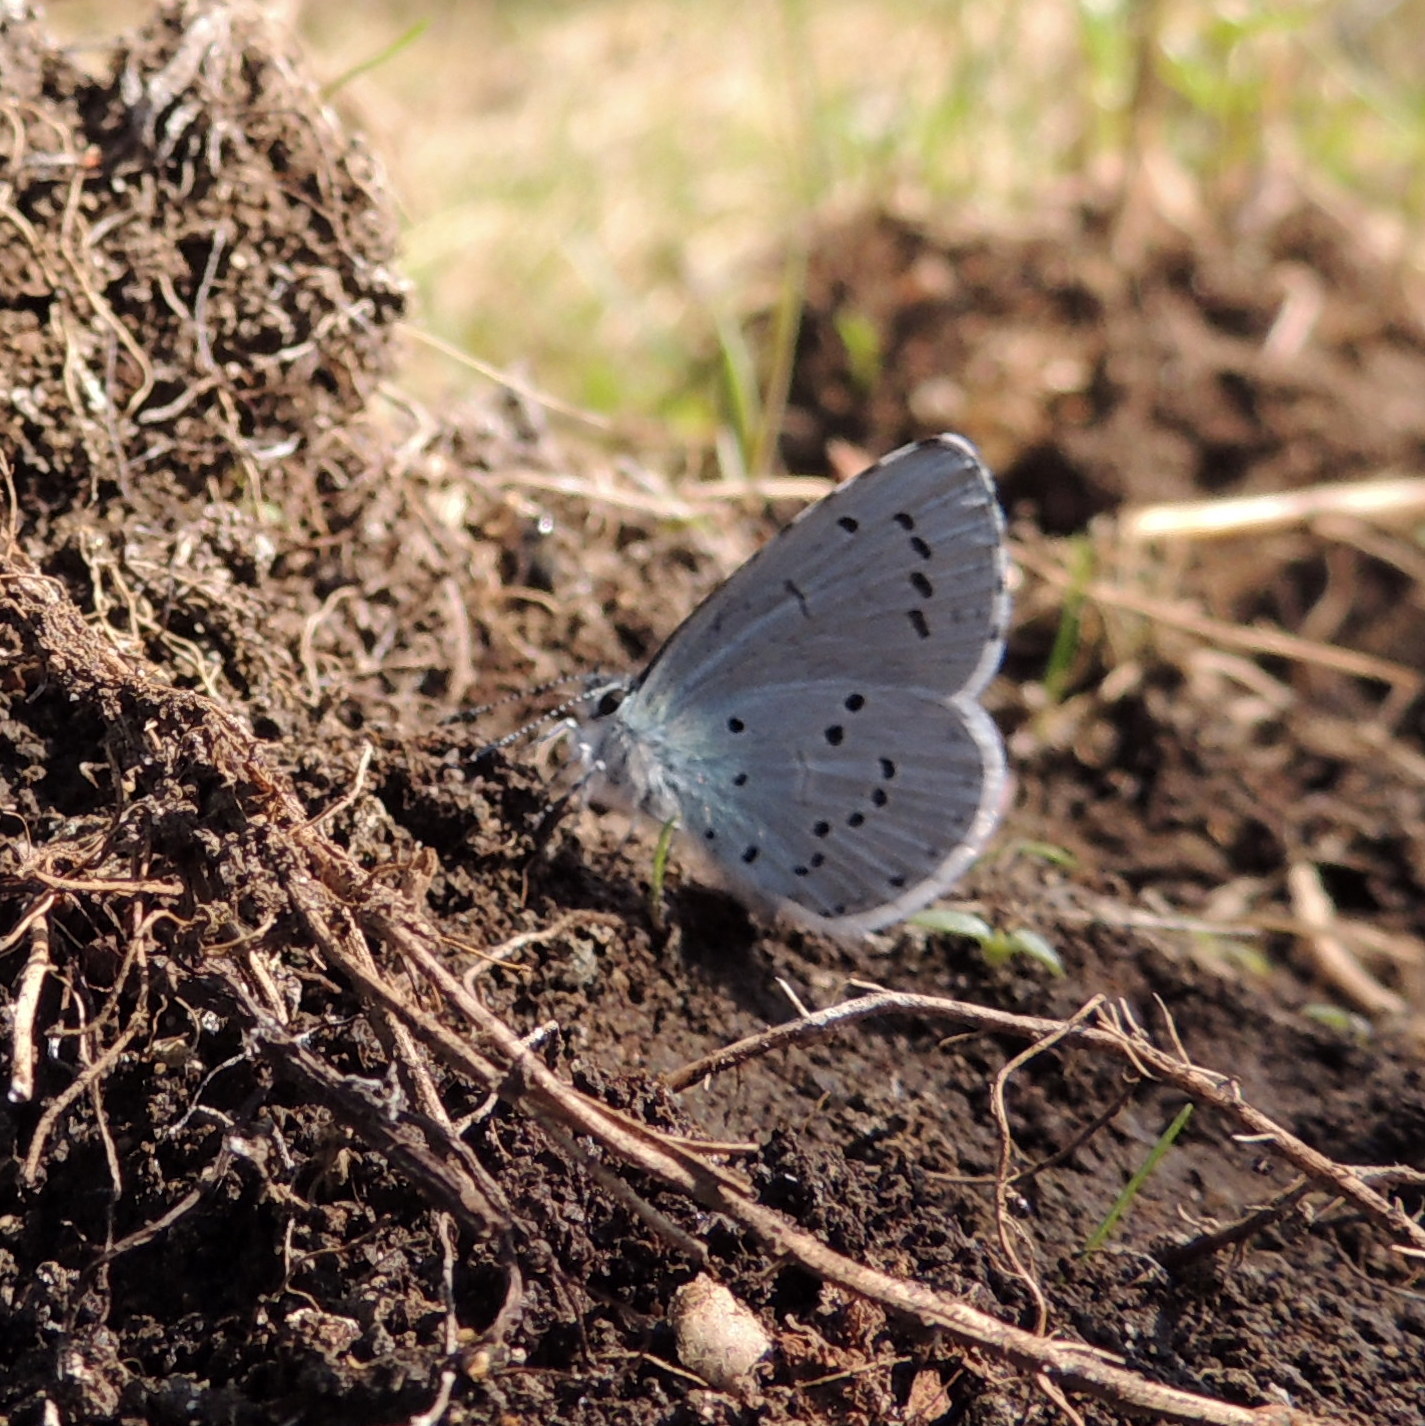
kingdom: Animalia
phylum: Arthropoda
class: Insecta
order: Lepidoptera
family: Lycaenidae
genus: Celastrina
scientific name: Celastrina argiolus
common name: Holly blue
